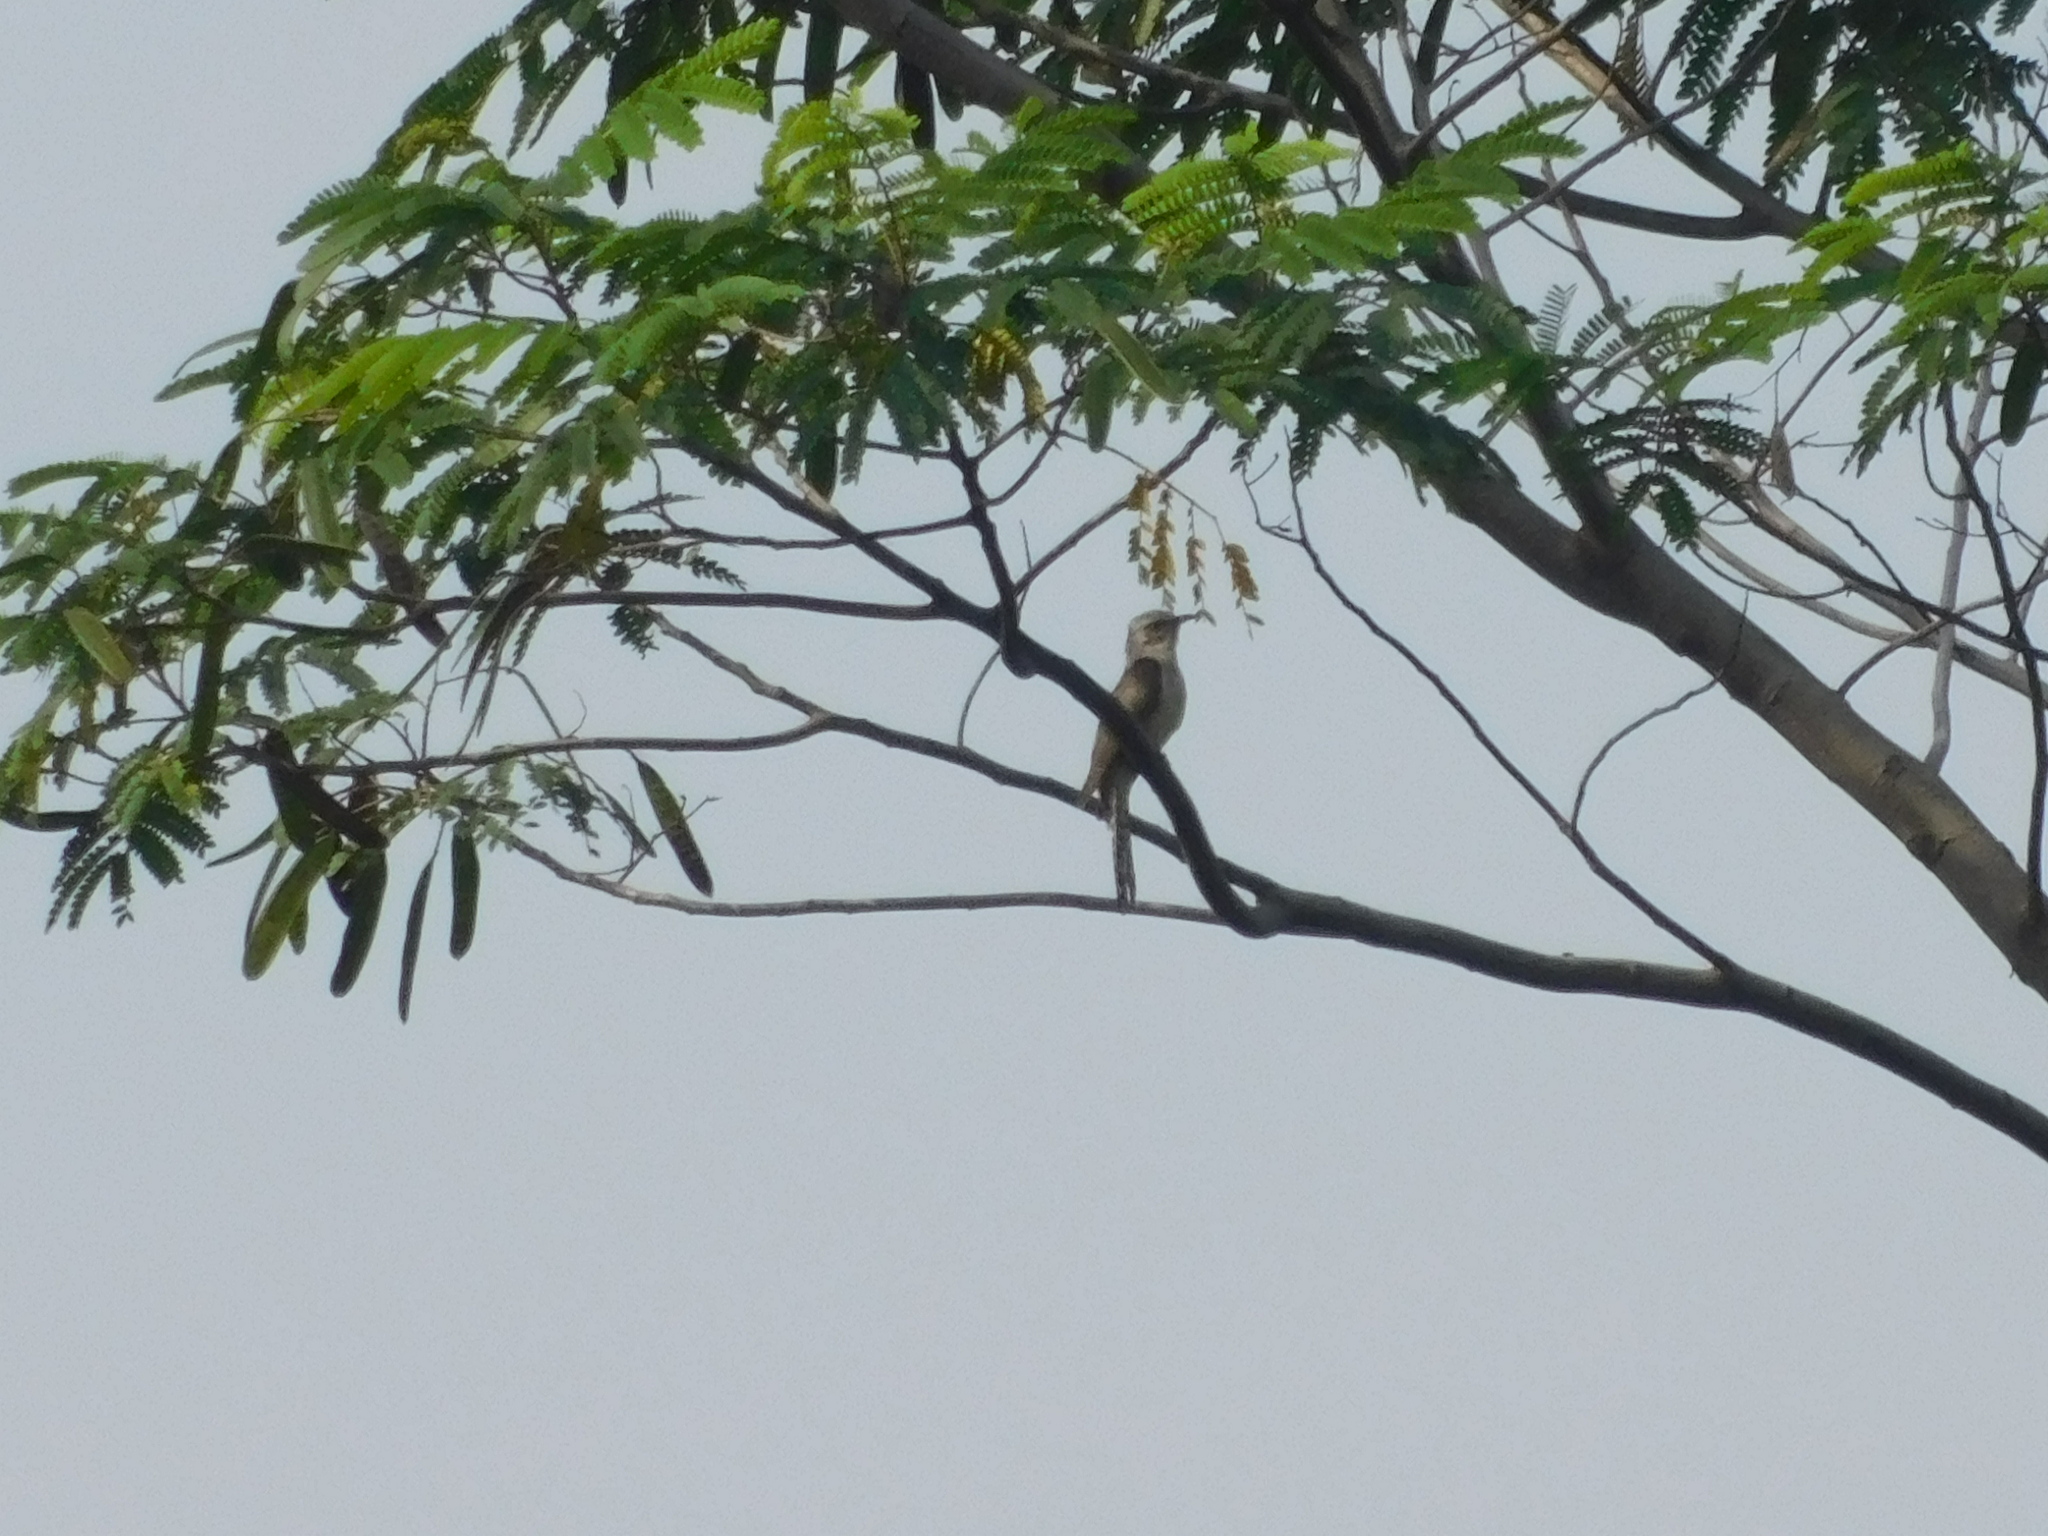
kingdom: Animalia
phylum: Chordata
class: Aves
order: Cuculiformes
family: Cuculidae
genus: Cacomantis
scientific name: Cacomantis merulinus
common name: Plaintive cuckoo
